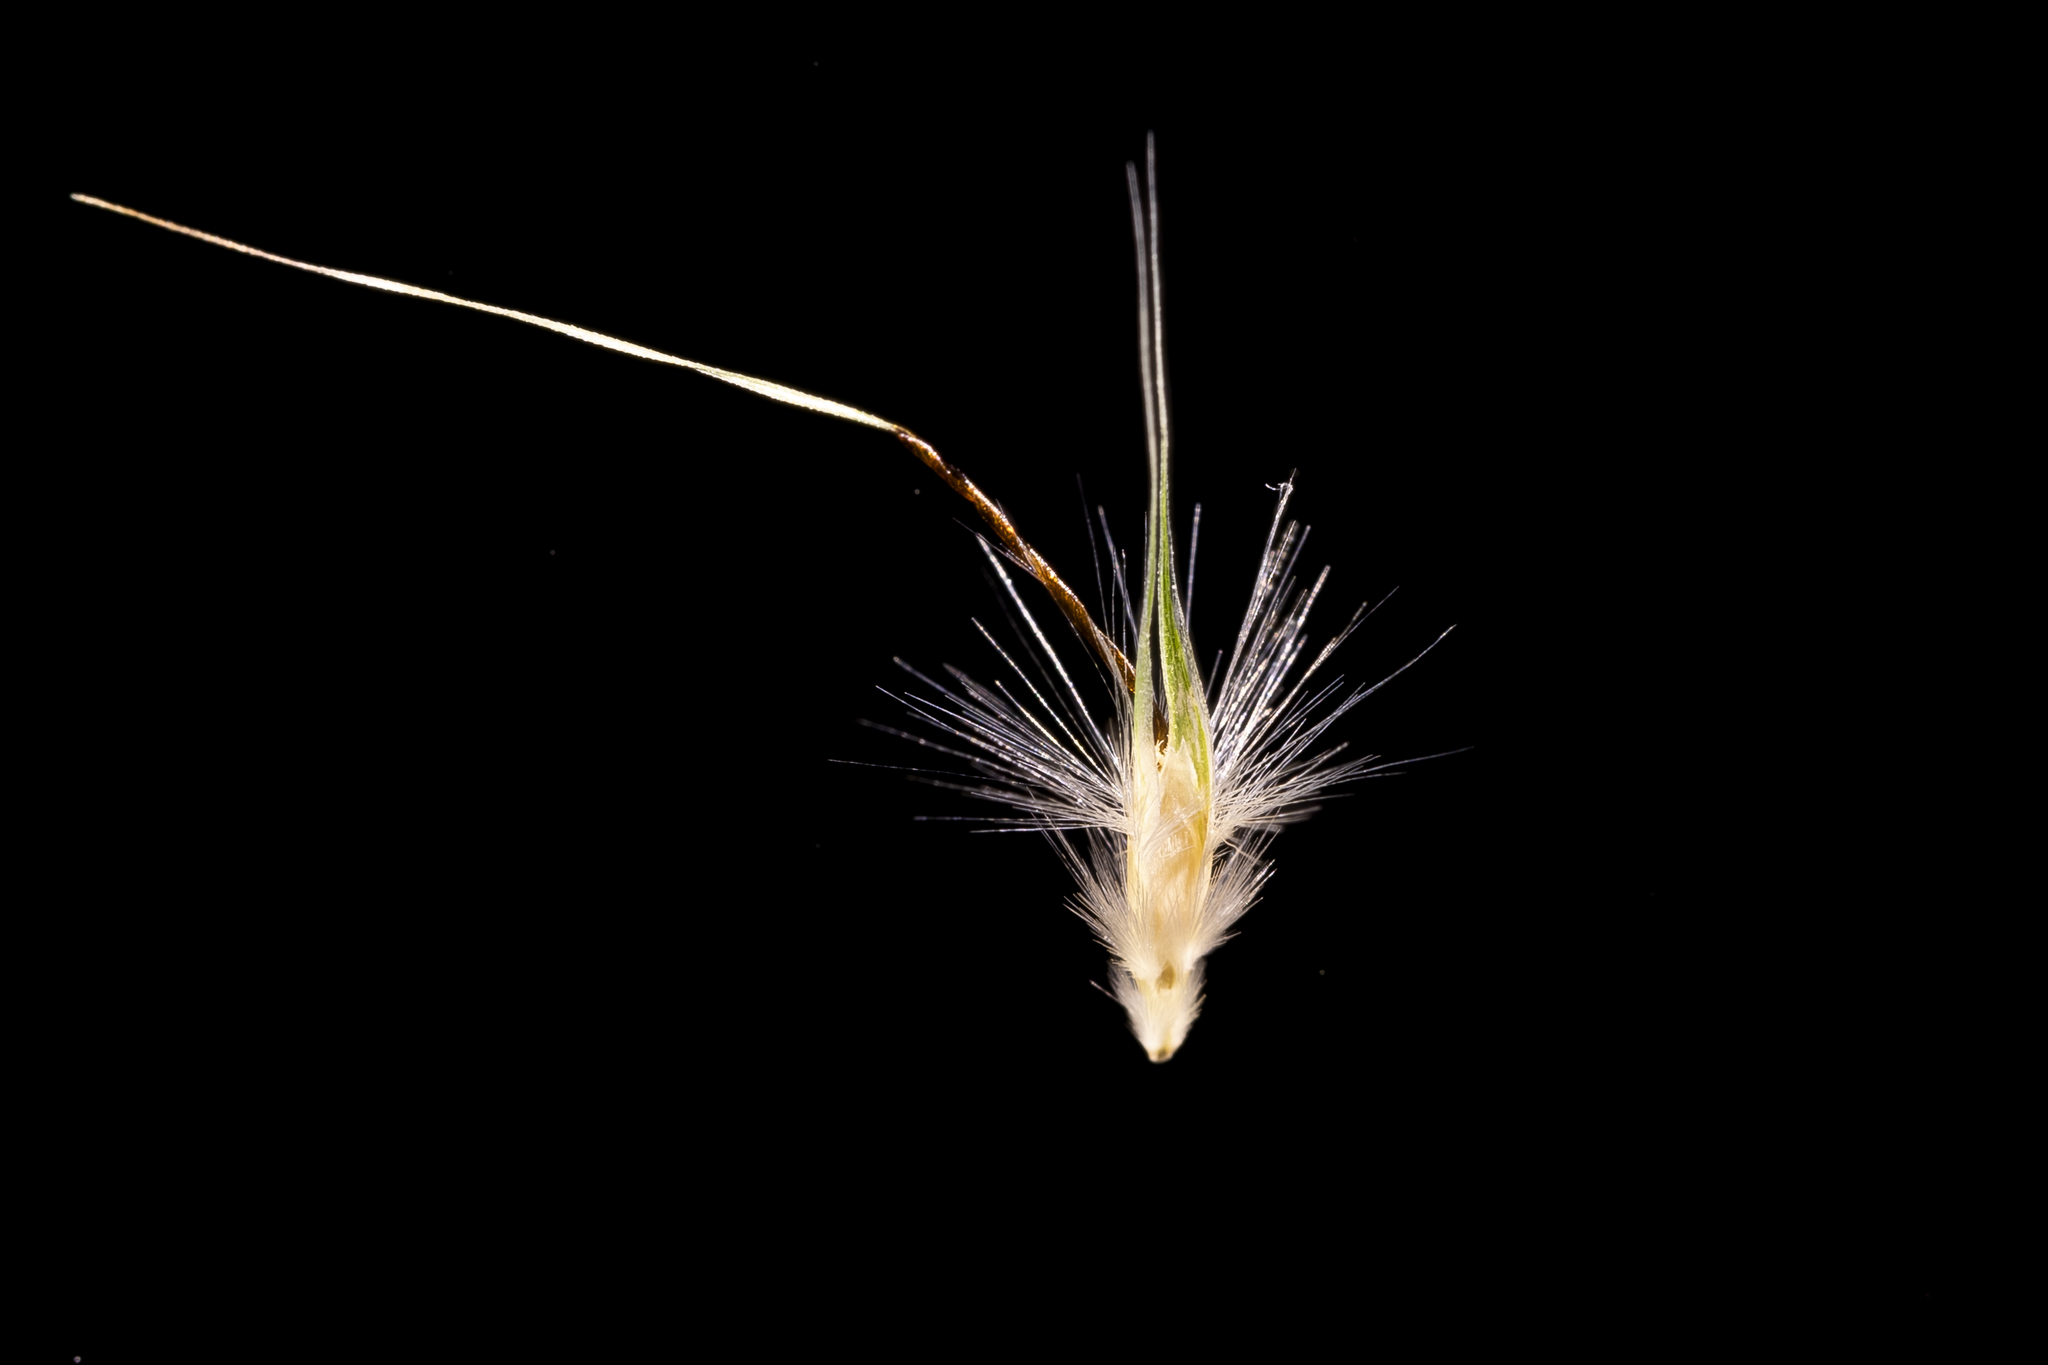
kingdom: Plantae
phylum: Tracheophyta
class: Liliopsida
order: Poales
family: Poaceae
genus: Rytidosperma
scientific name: Rytidosperma caespitosum
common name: Tufted wallaby grass
